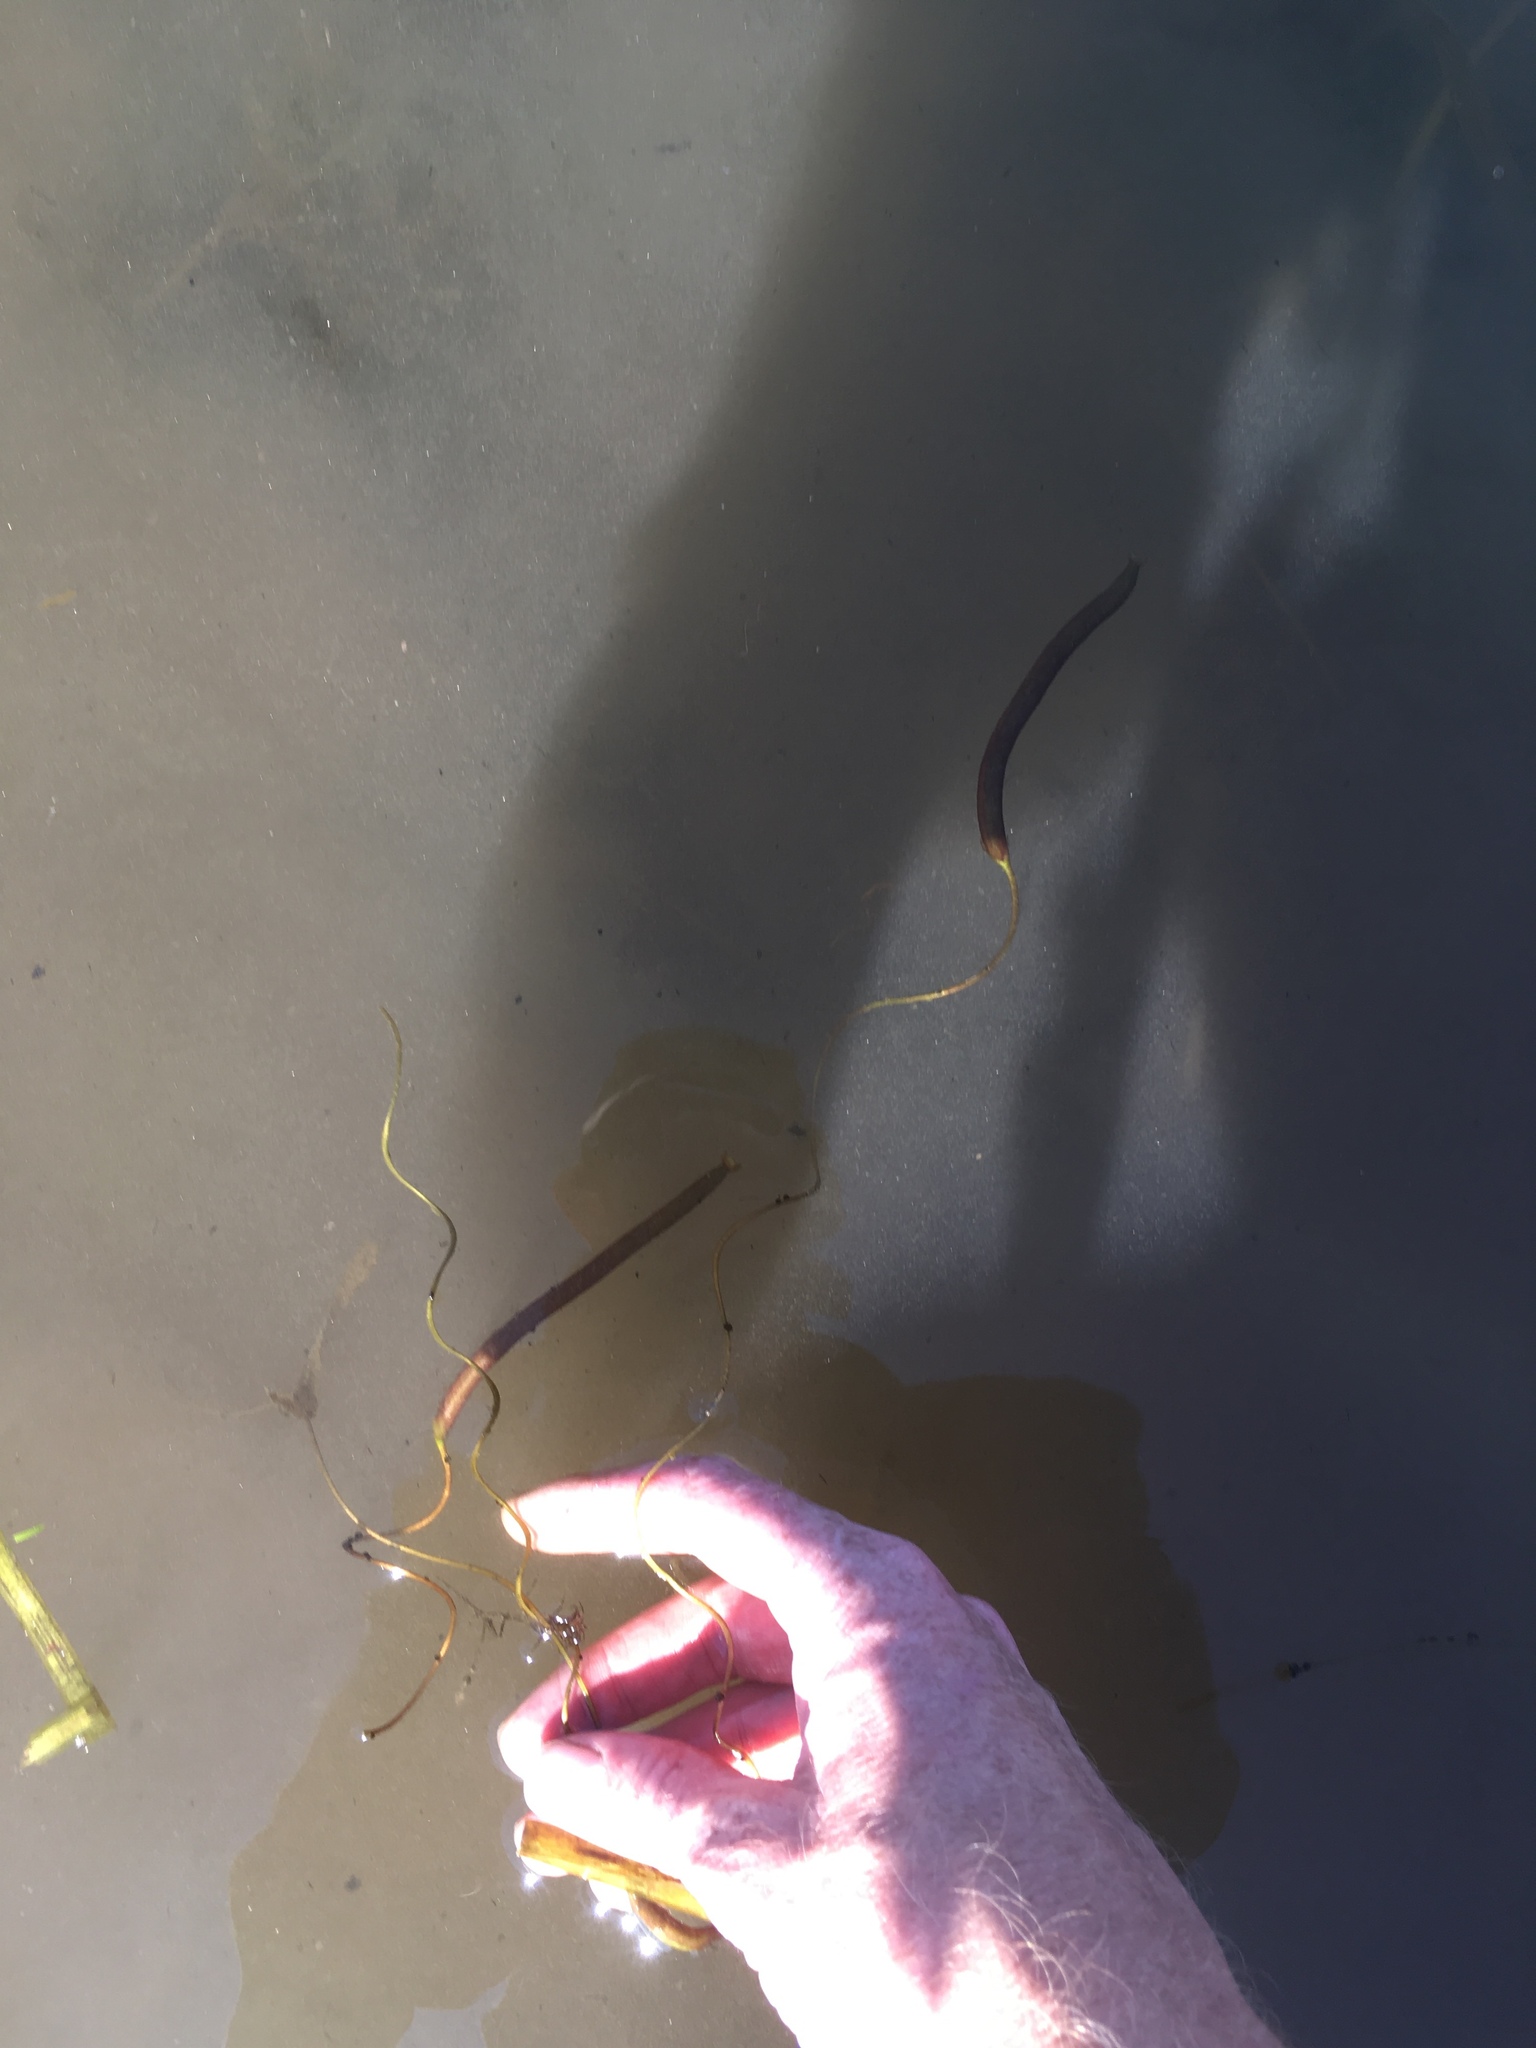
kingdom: Plantae
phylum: Tracheophyta
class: Liliopsida
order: Alismatales
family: Hydrocharitaceae
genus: Vallisneria
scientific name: Vallisneria americana
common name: American eelgrass
